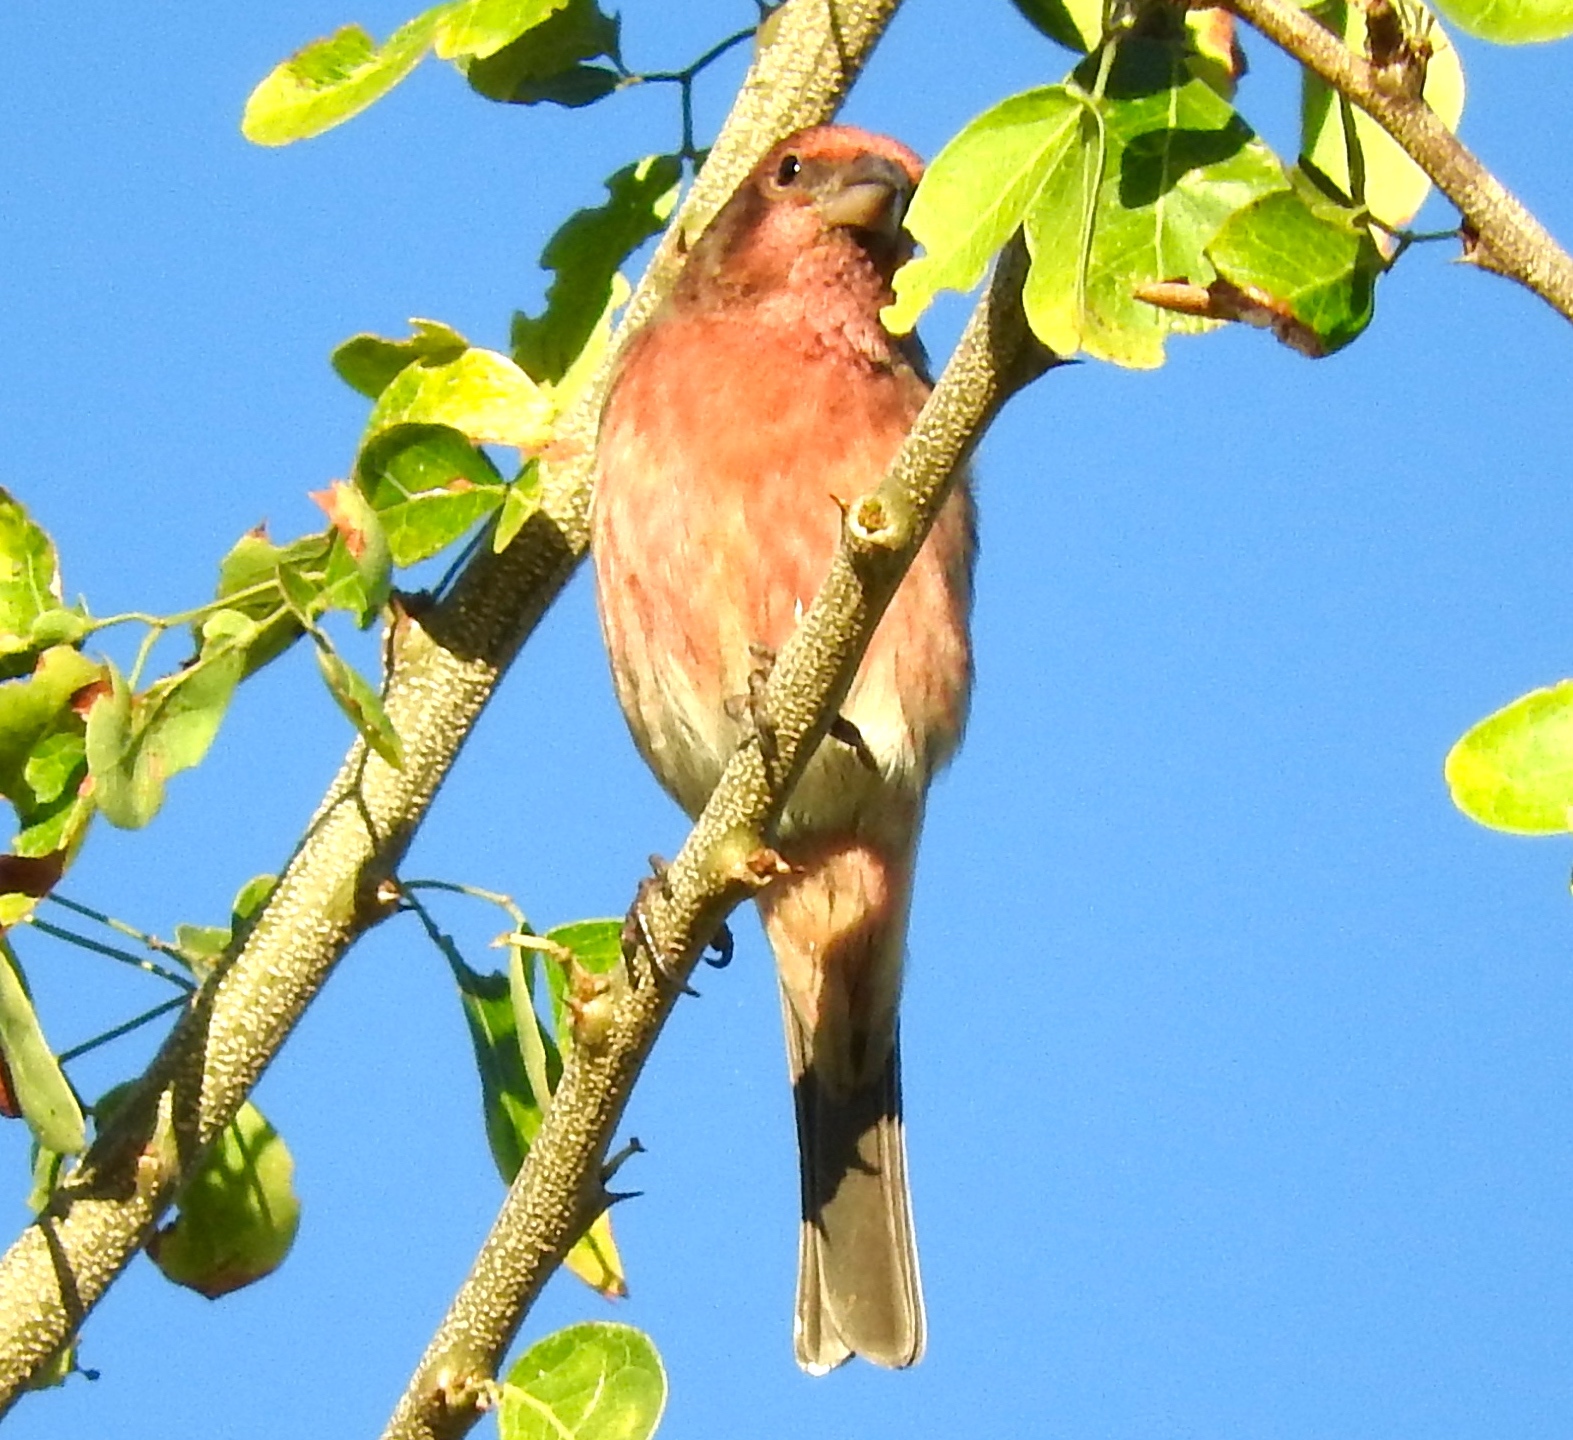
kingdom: Animalia
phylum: Chordata
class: Aves
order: Passeriformes
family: Fringillidae
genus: Haemorhous
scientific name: Haemorhous mexicanus
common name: House finch
